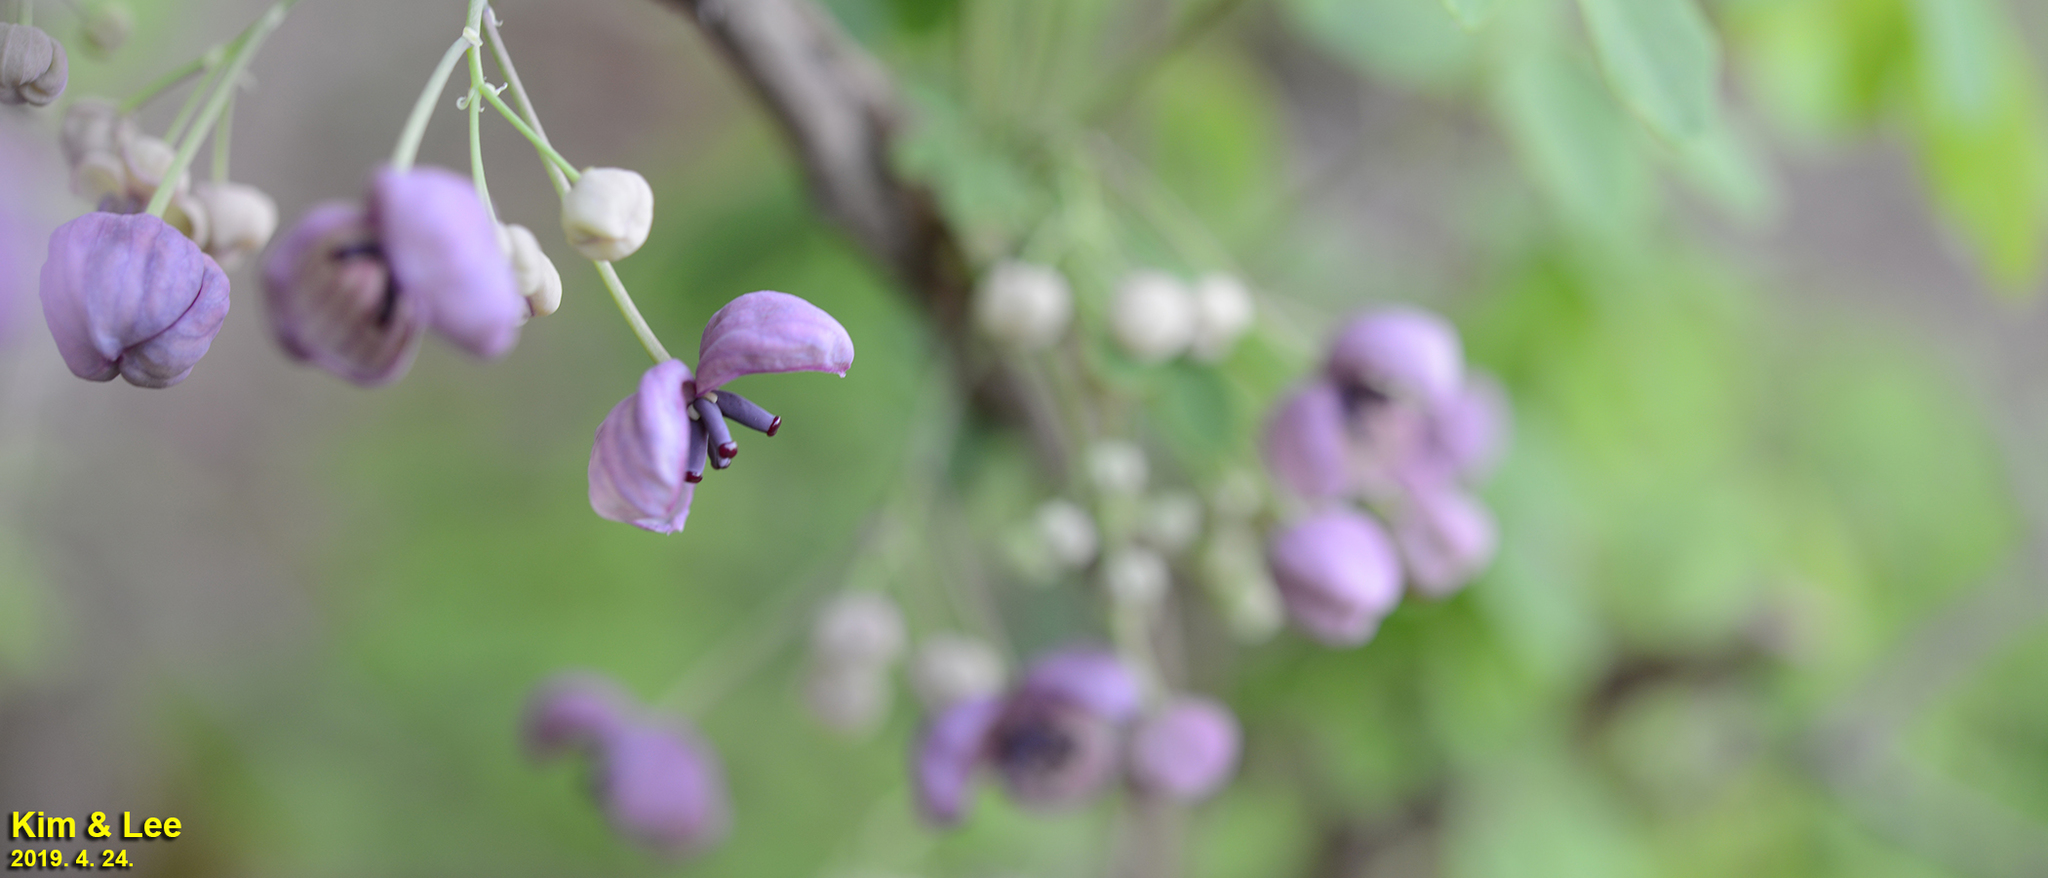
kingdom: Plantae
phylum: Tracheophyta
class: Magnoliopsida
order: Ranunculales
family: Lardizabalaceae
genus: Akebia
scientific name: Akebia quinata
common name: Five-leaf akebia
